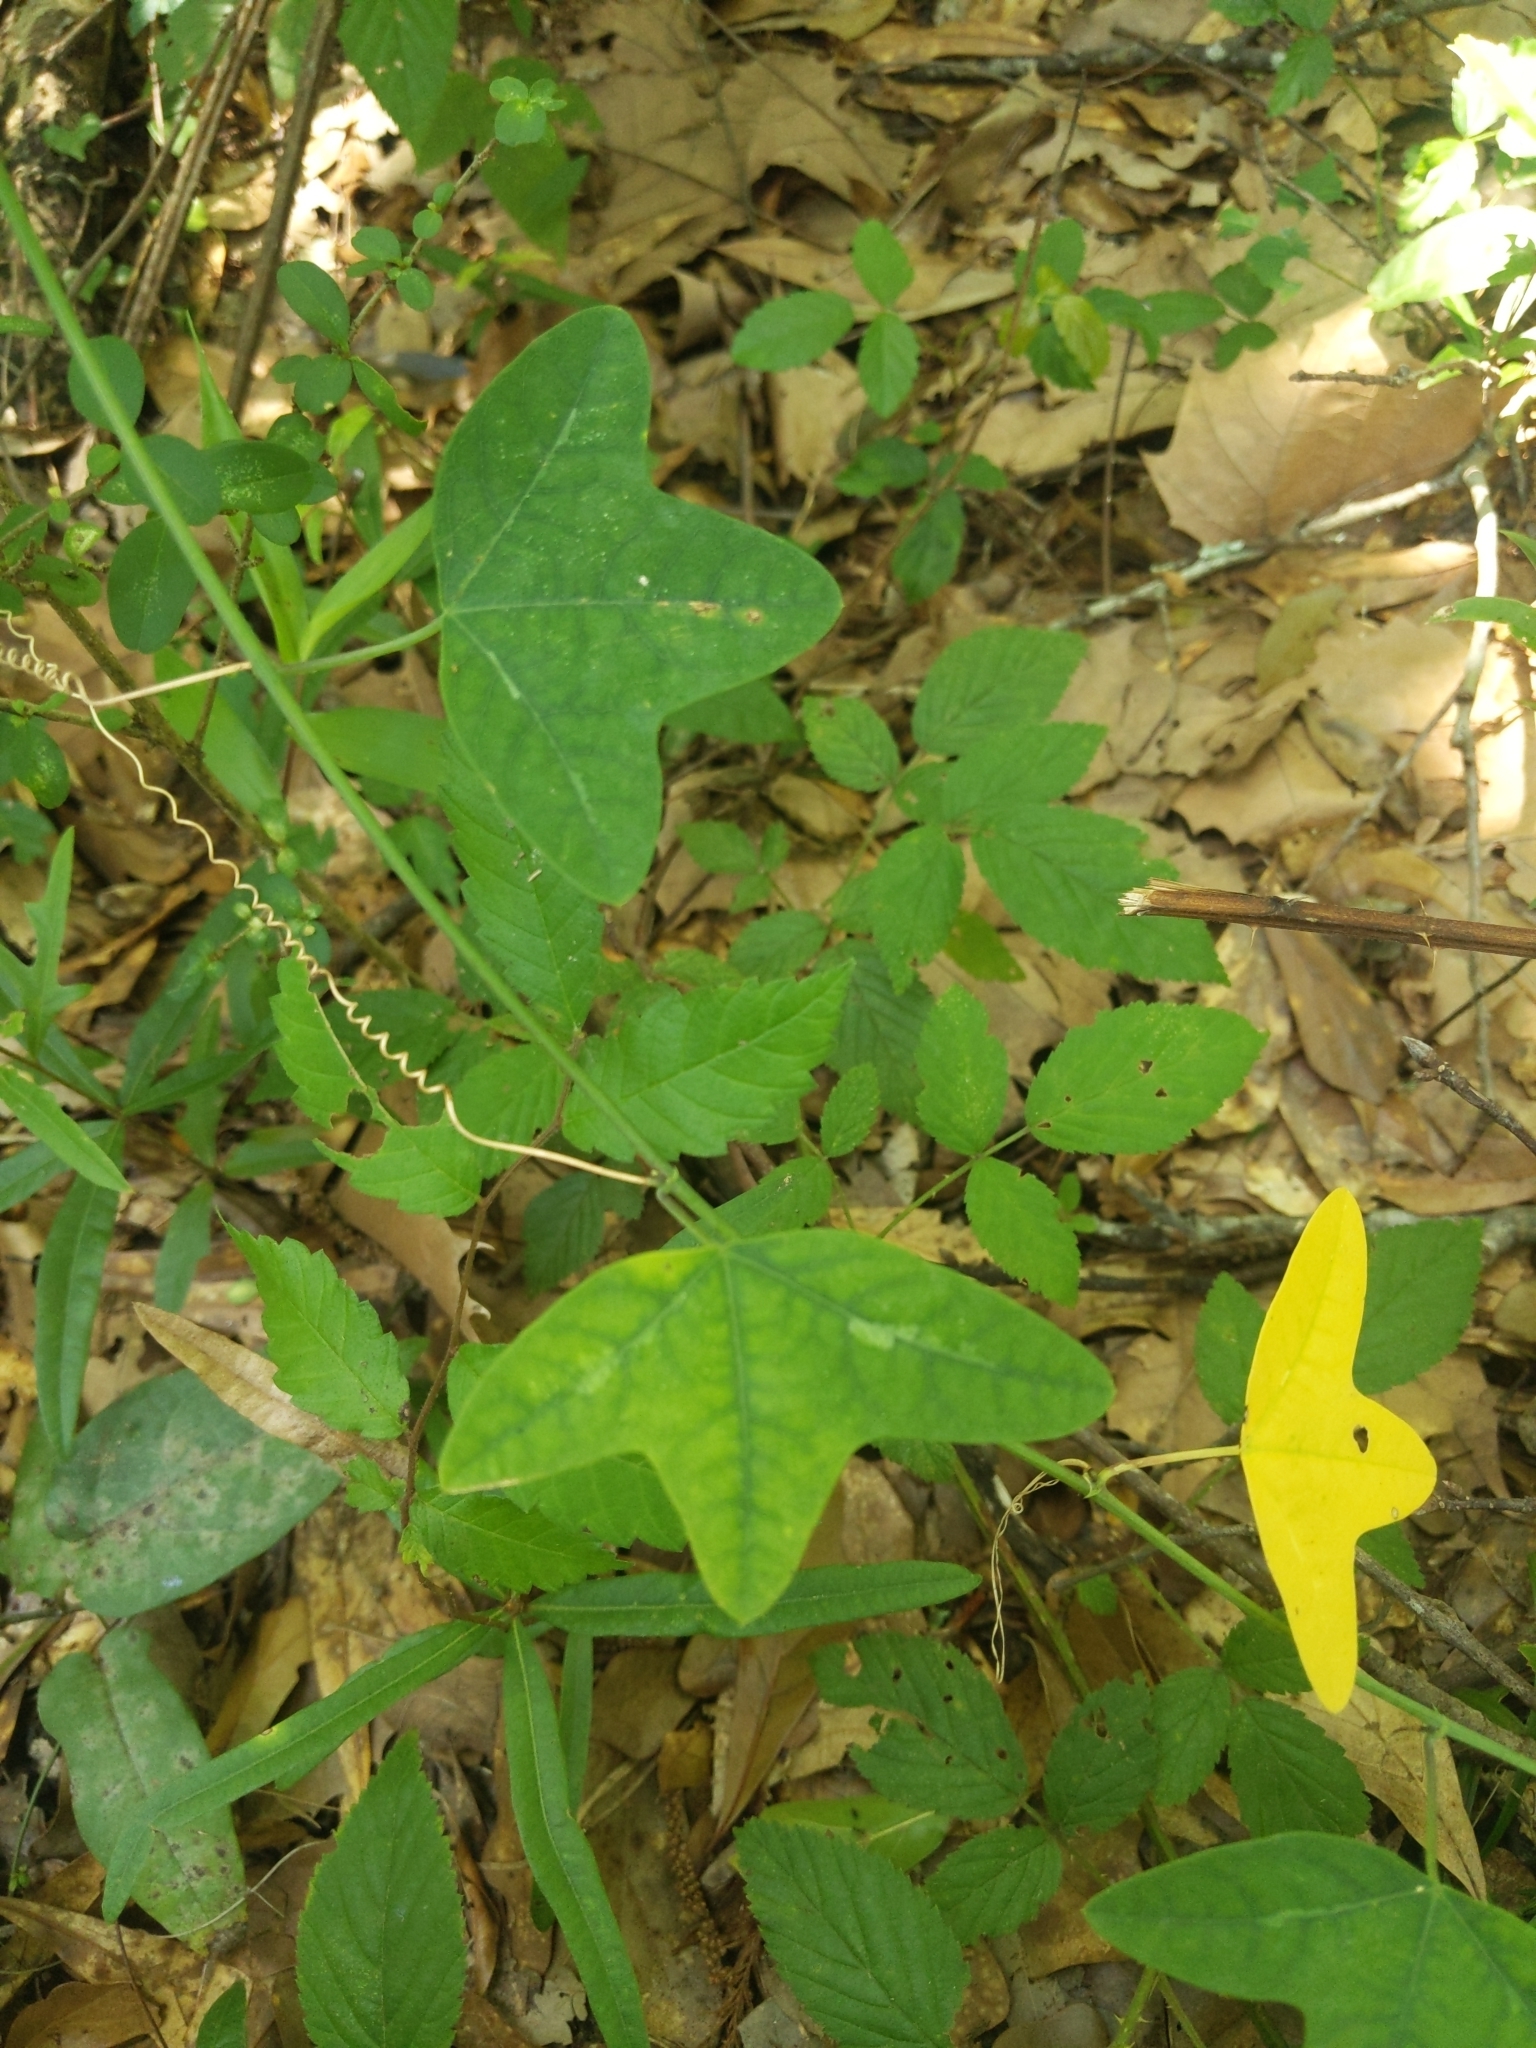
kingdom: Plantae
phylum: Tracheophyta
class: Magnoliopsida
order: Malpighiales
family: Passifloraceae
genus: Passiflora
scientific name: Passiflora lutea
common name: Yellow passionflower
